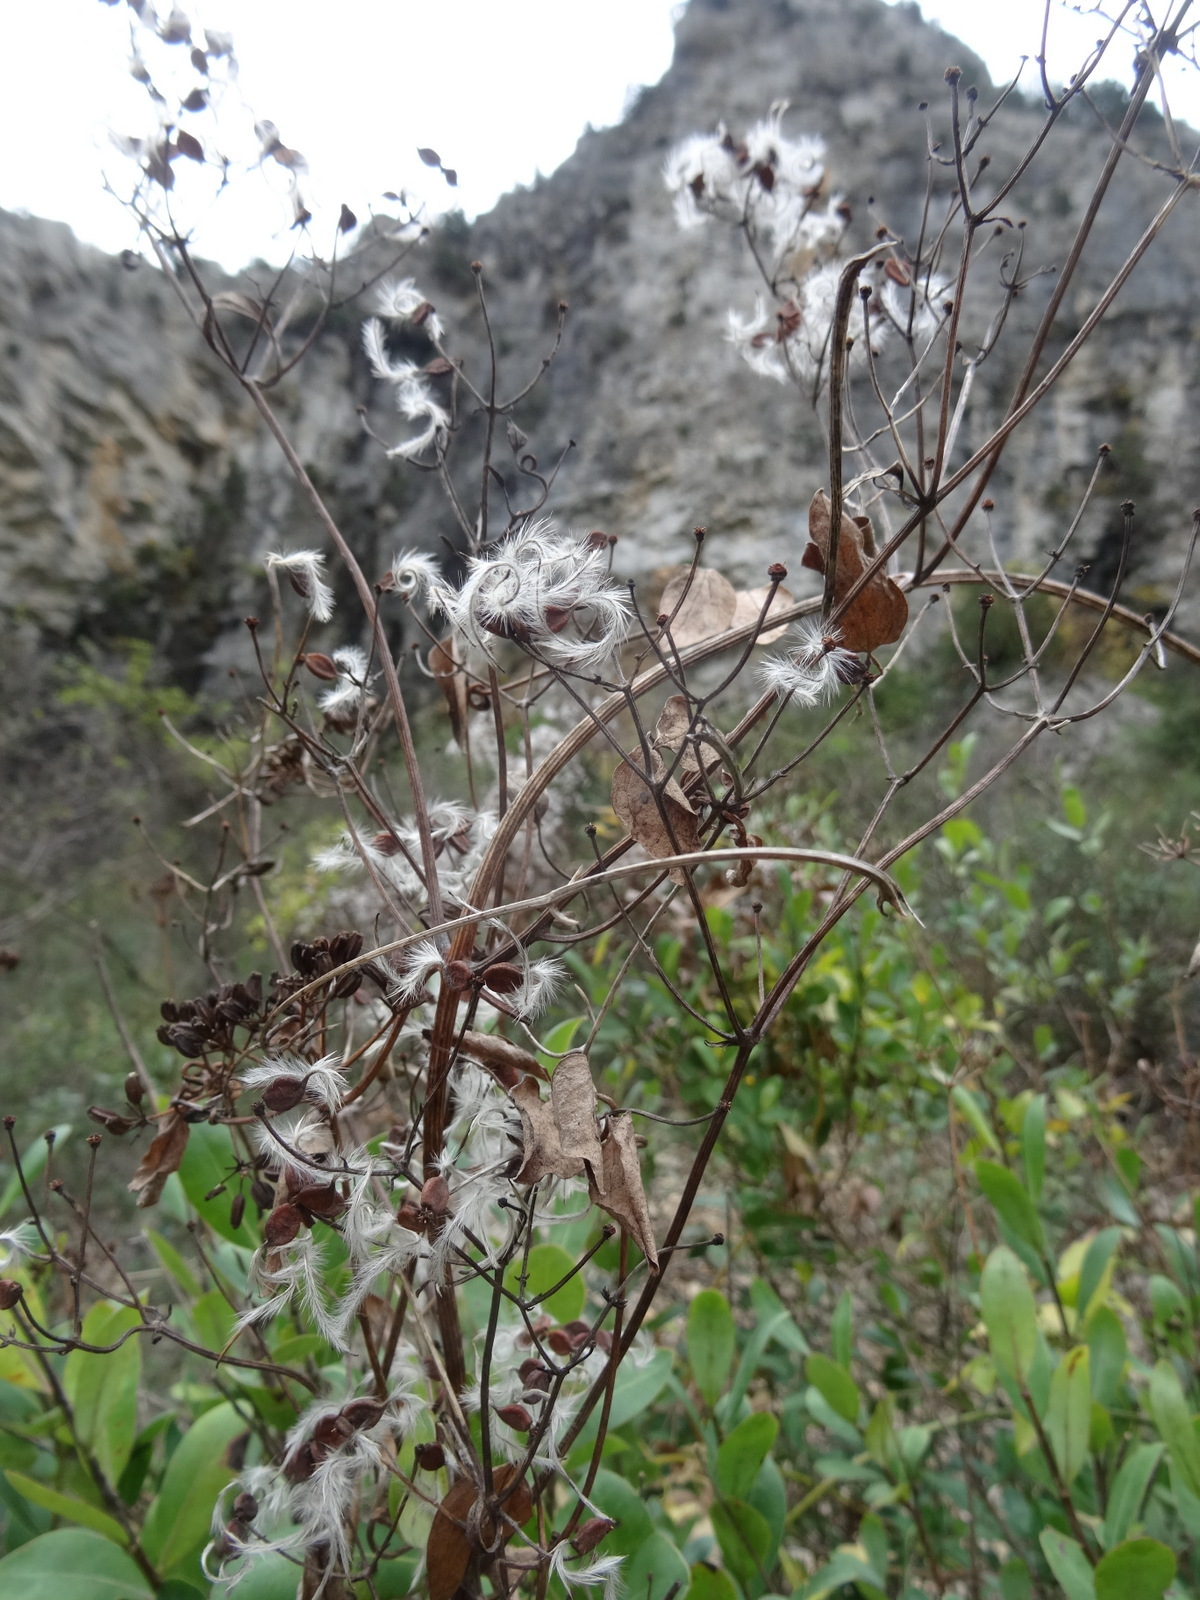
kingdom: Plantae
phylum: Tracheophyta
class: Magnoliopsida
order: Ranunculales
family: Ranunculaceae
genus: Clematis
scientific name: Clematis flammula
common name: Virgin's-bower
